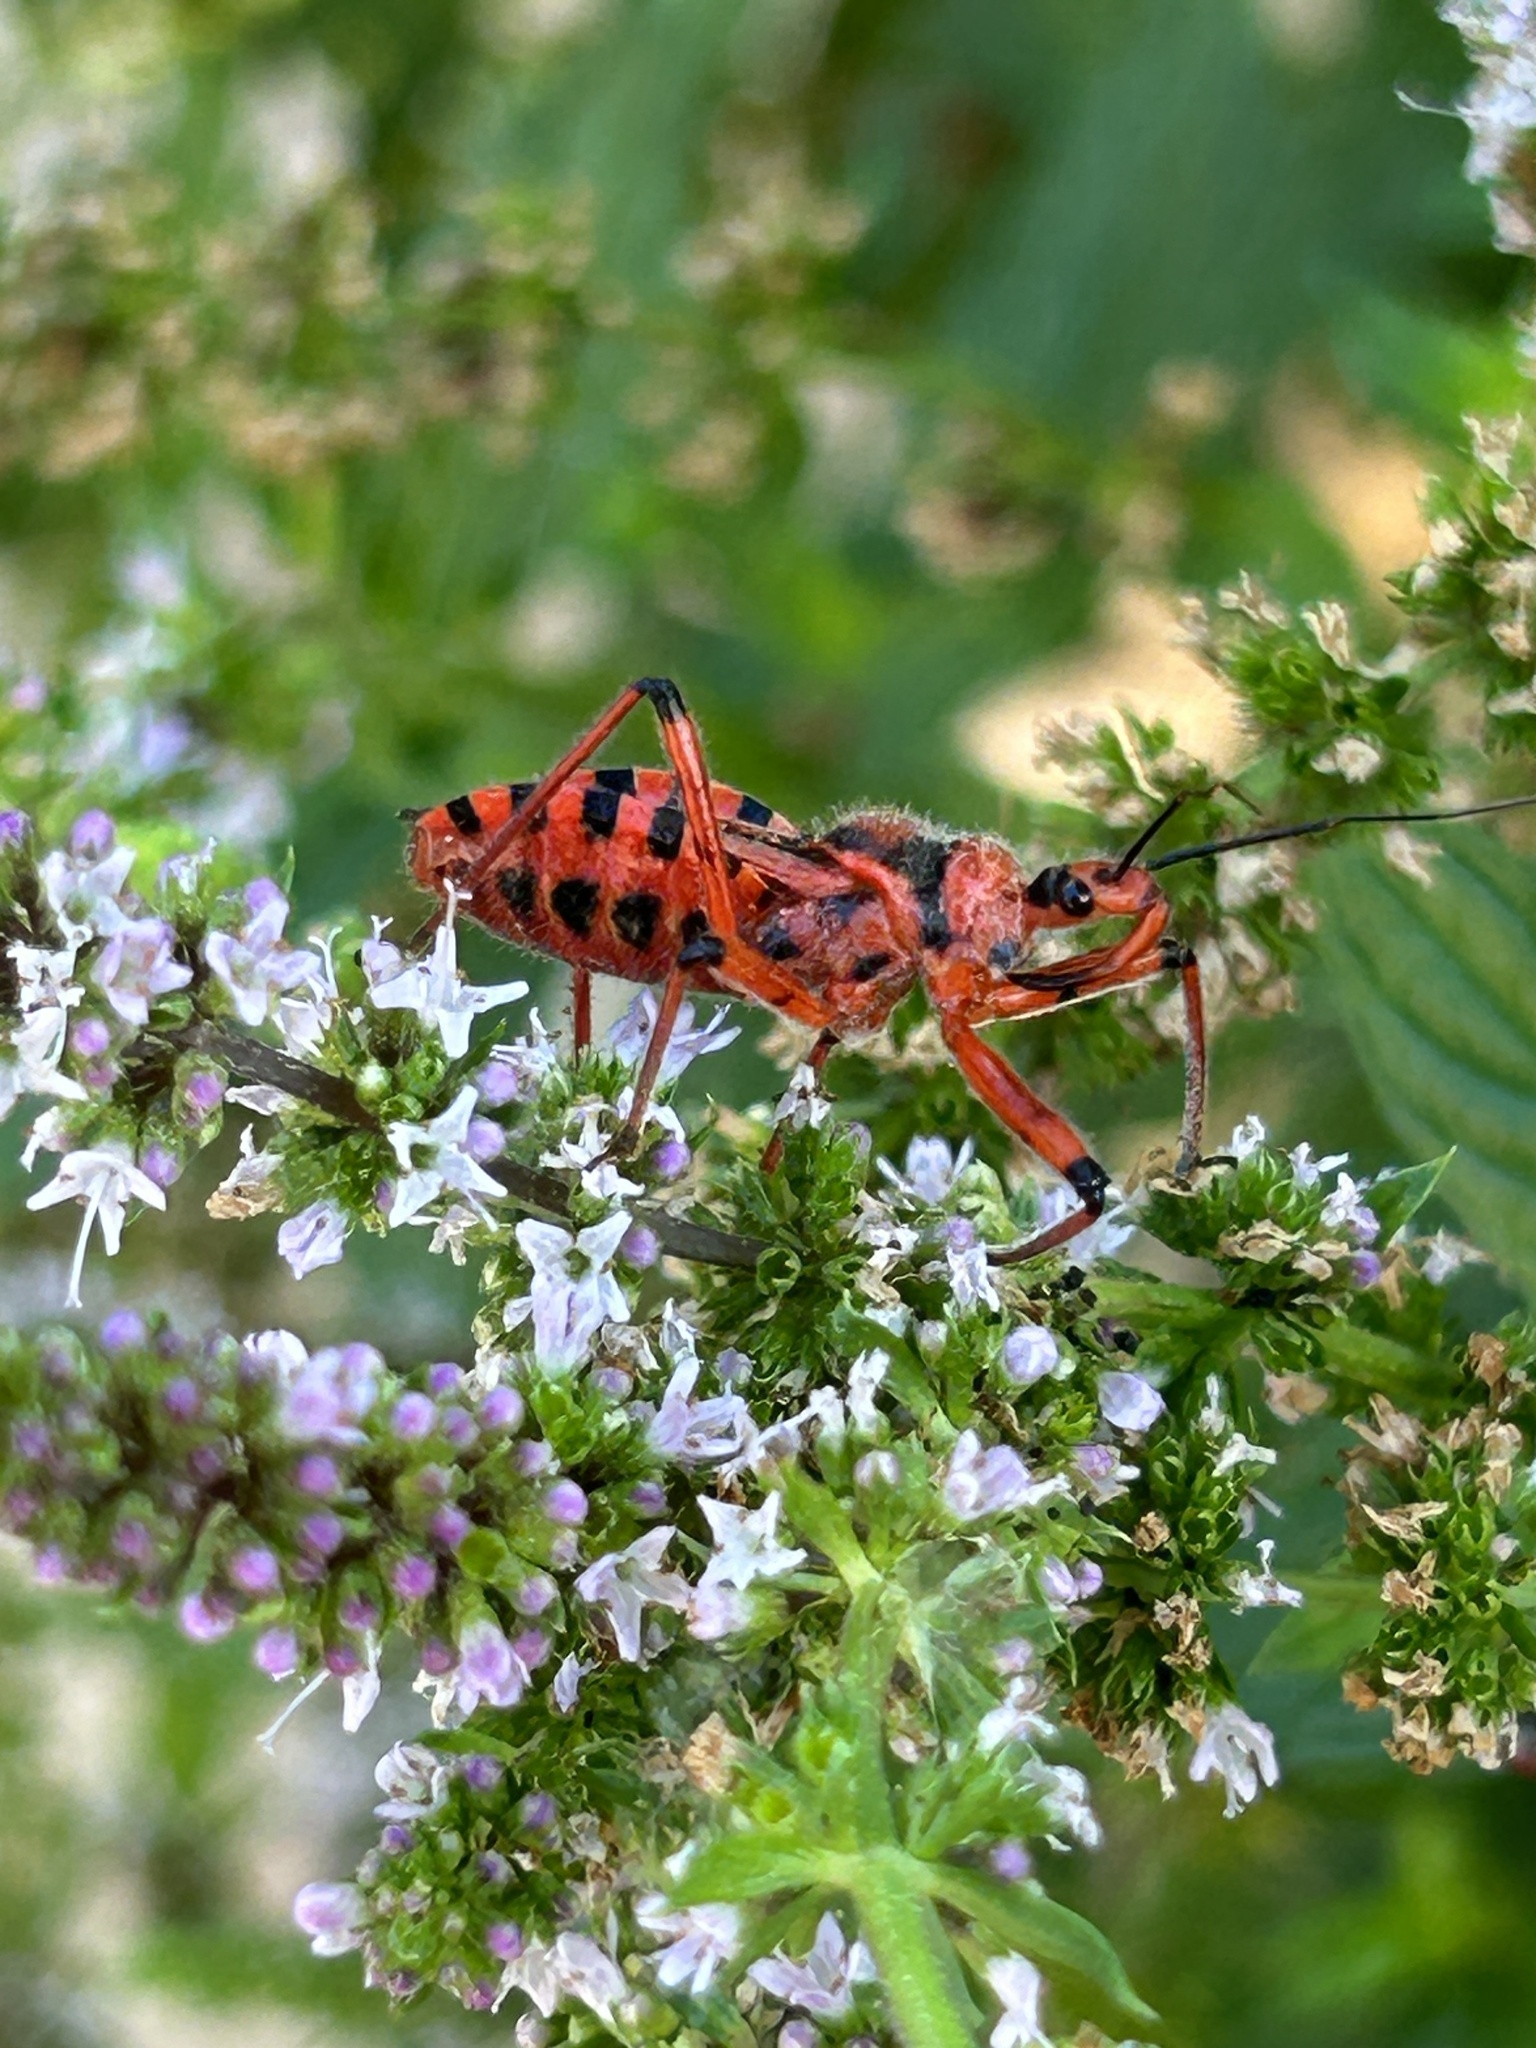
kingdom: Animalia
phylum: Arthropoda
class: Insecta
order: Hemiptera
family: Reduviidae
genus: Rhynocoris
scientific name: Rhynocoris iracundus
